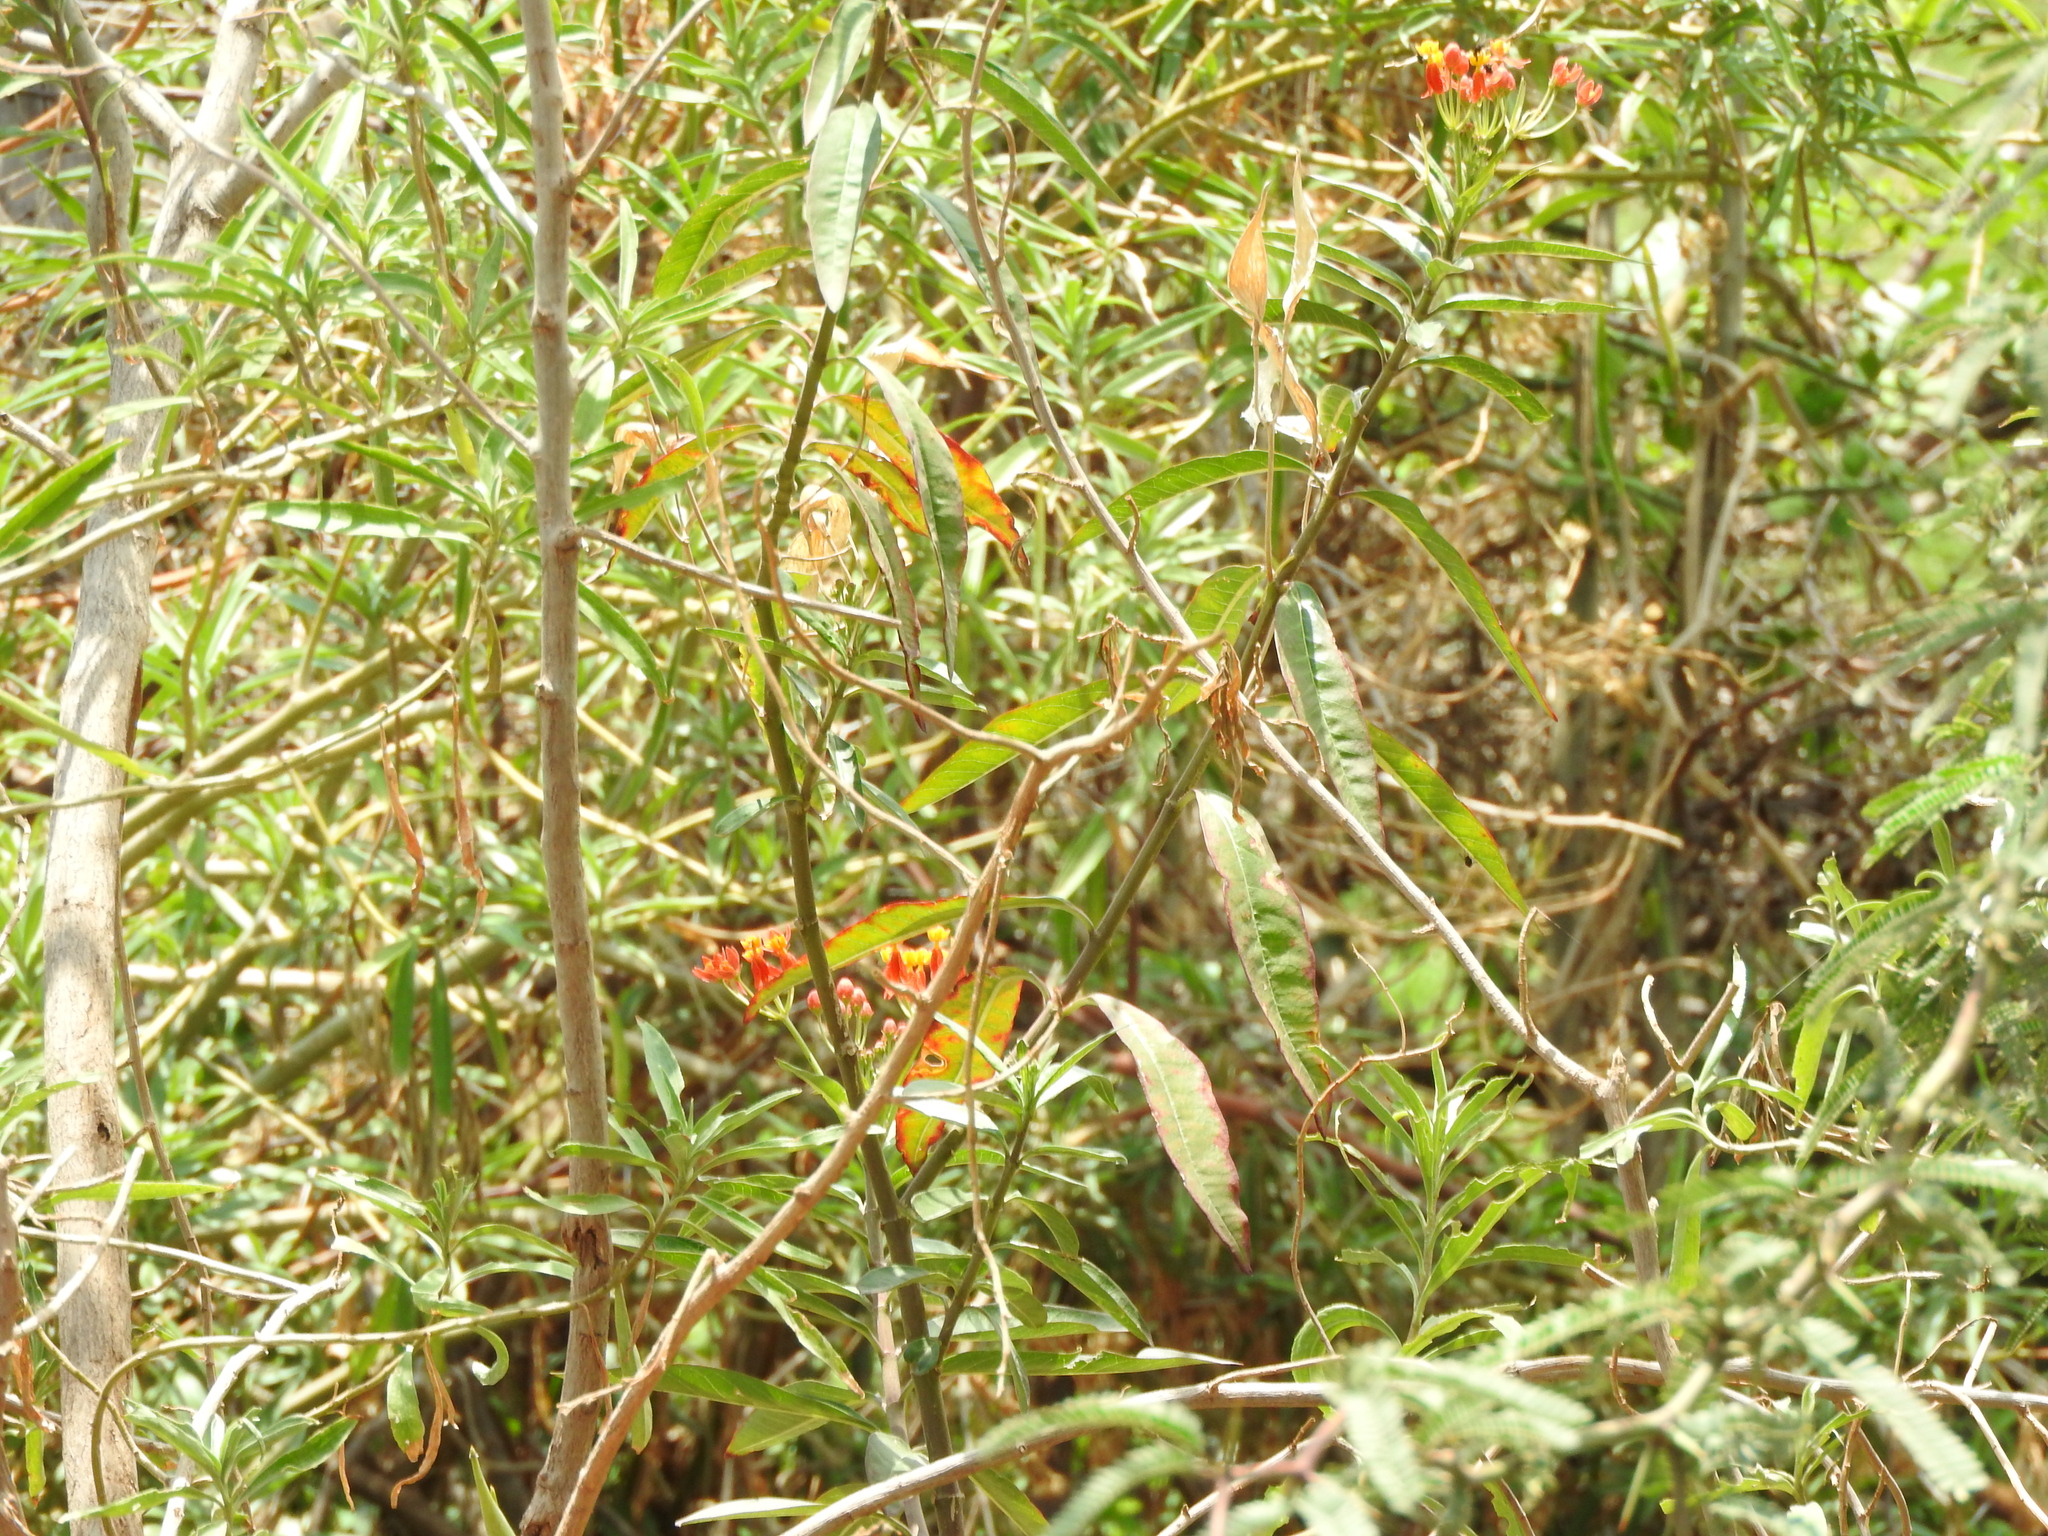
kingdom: Plantae
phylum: Tracheophyta
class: Magnoliopsida
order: Gentianales
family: Apocynaceae
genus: Asclepias
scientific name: Asclepias curassavica
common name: Bloodflower
